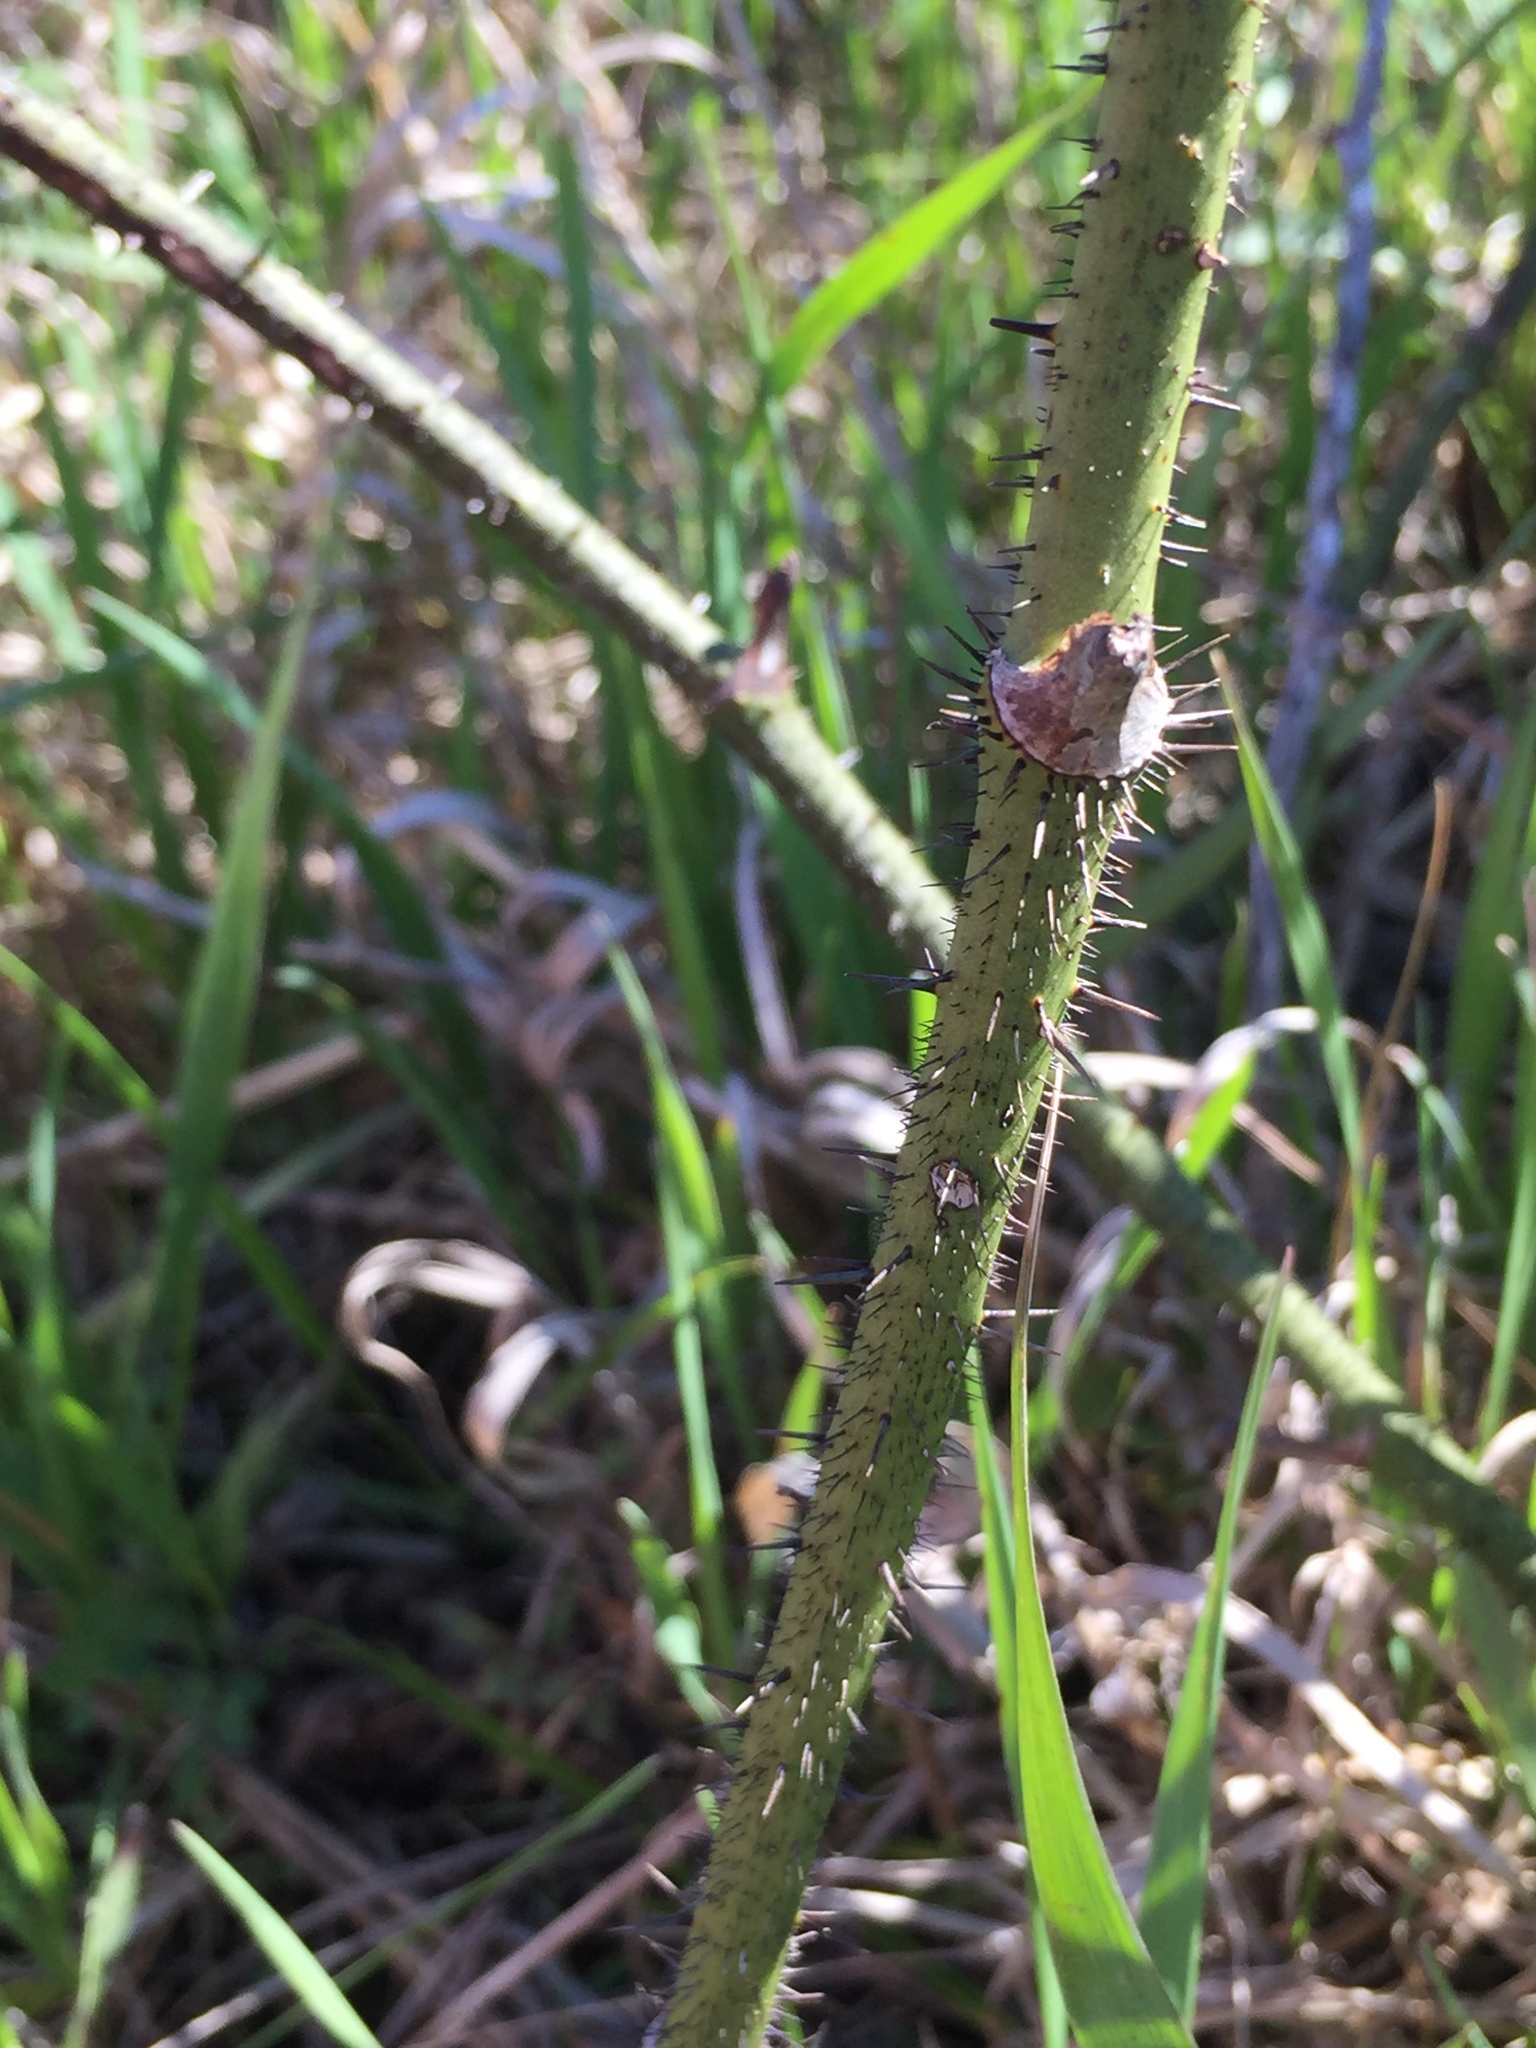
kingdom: Plantae
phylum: Tracheophyta
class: Liliopsida
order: Liliales
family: Smilacaceae
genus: Smilax
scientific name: Smilax tamnoides
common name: Hellfetter
